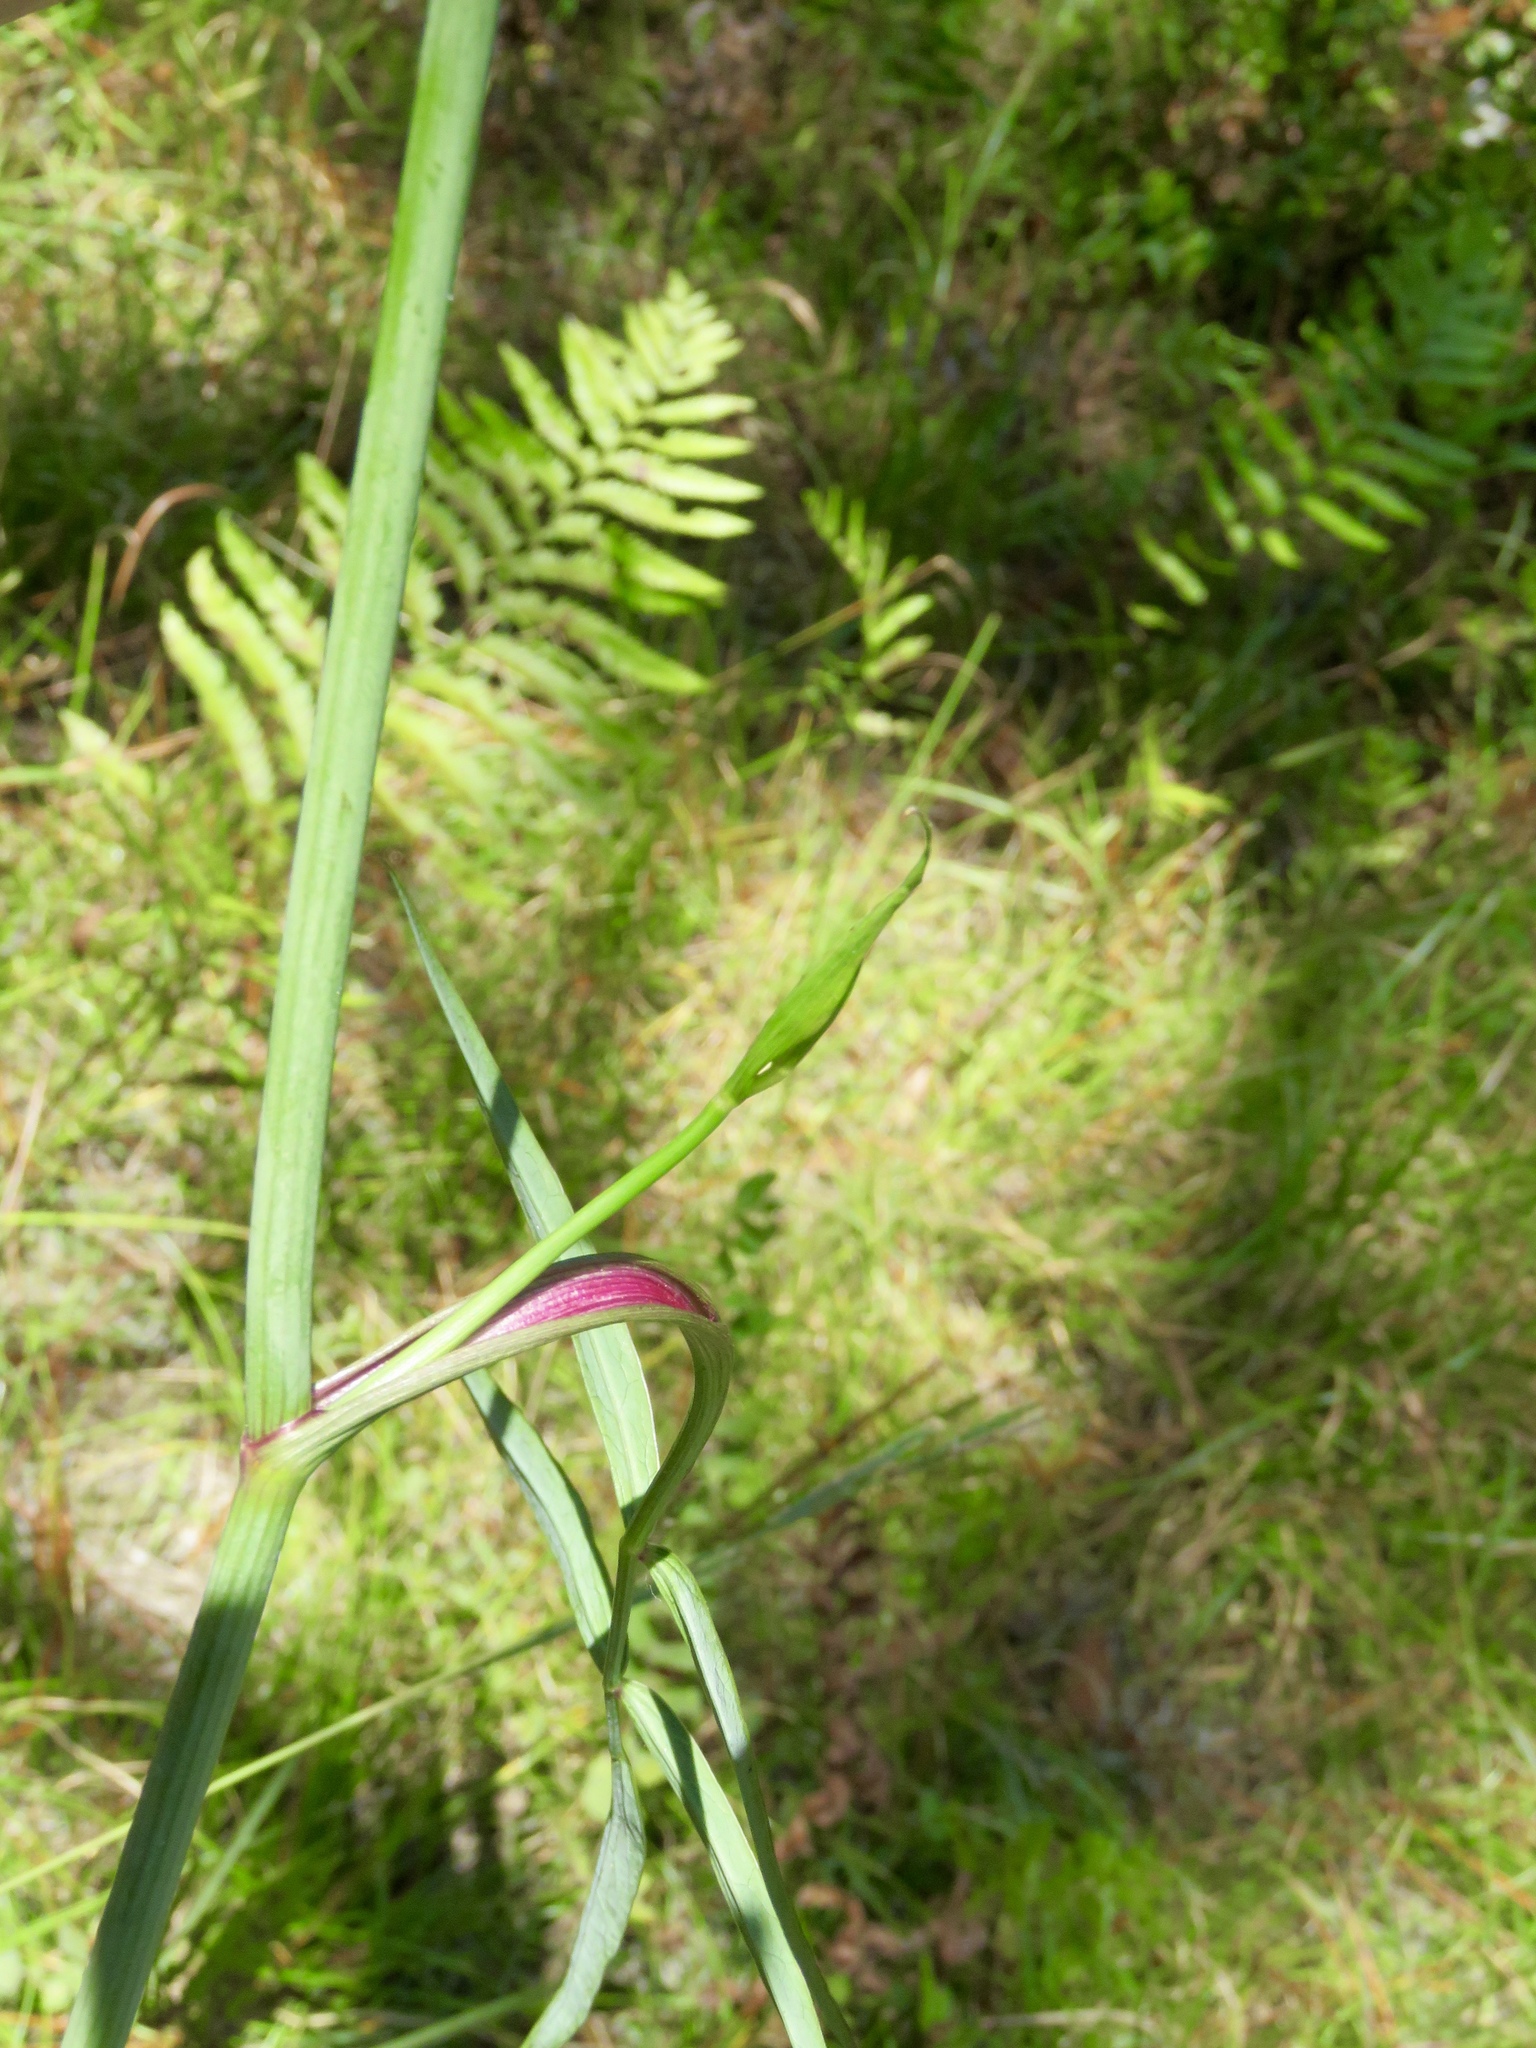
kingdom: Plantae
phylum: Tracheophyta
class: Magnoliopsida
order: Apiales
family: Apiaceae
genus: Oxypolis
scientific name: Oxypolis rigidior
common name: Cowbane
